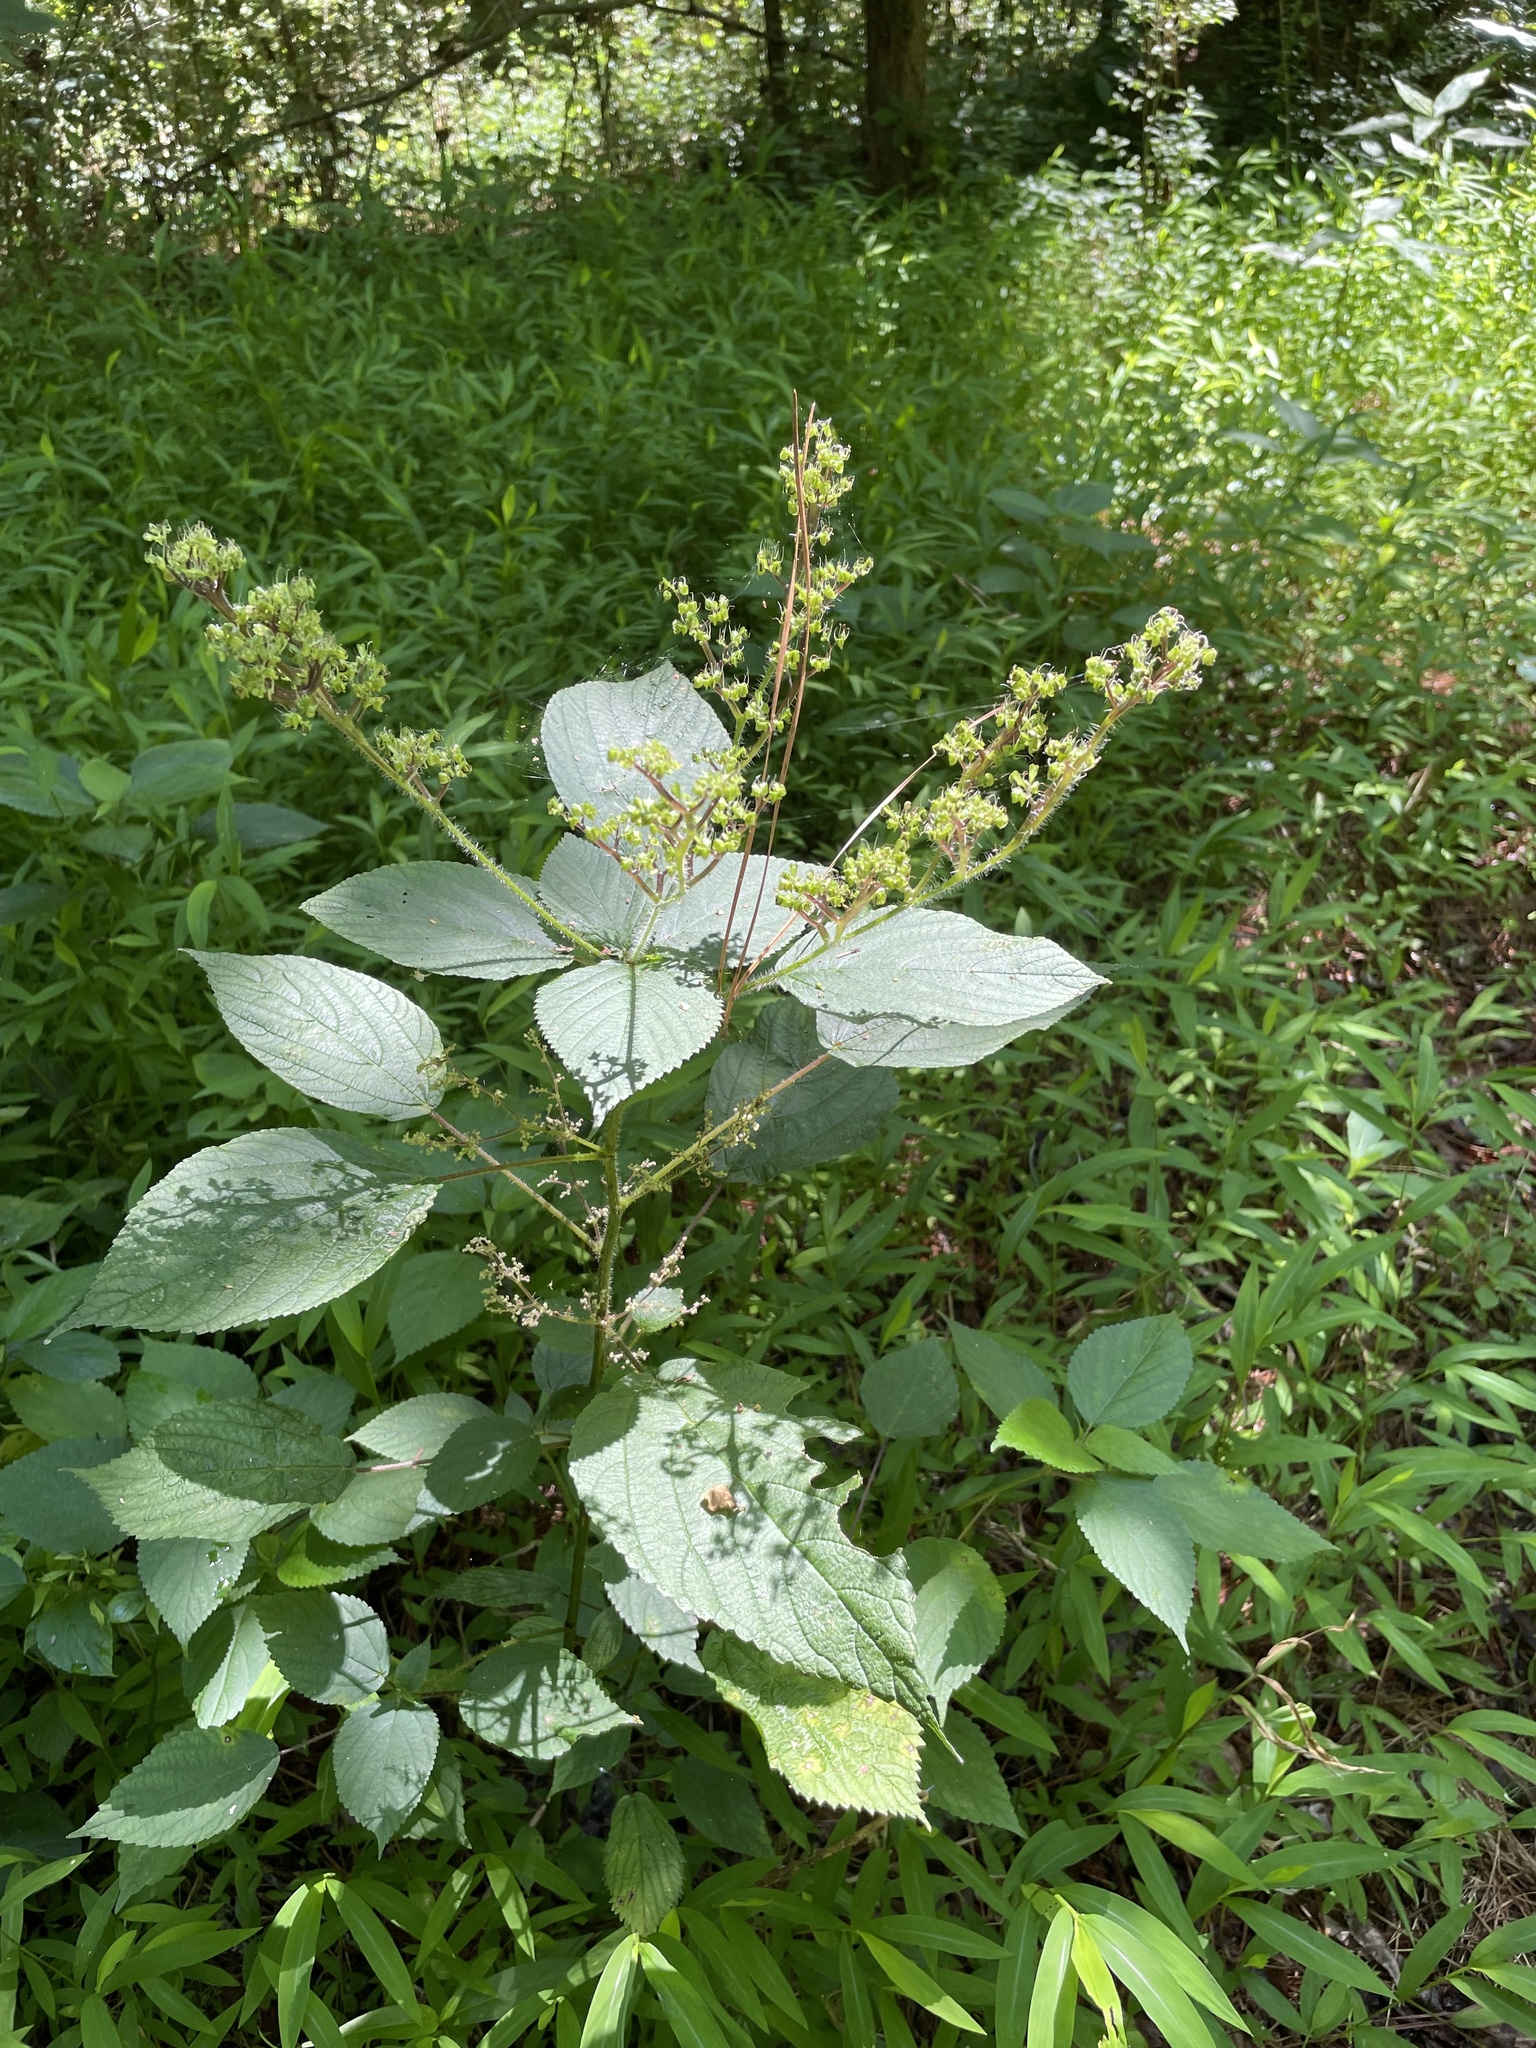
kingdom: Plantae
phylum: Tracheophyta
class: Magnoliopsida
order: Rosales
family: Urticaceae
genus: Laportea
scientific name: Laportea canadensis
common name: Canada nettle
